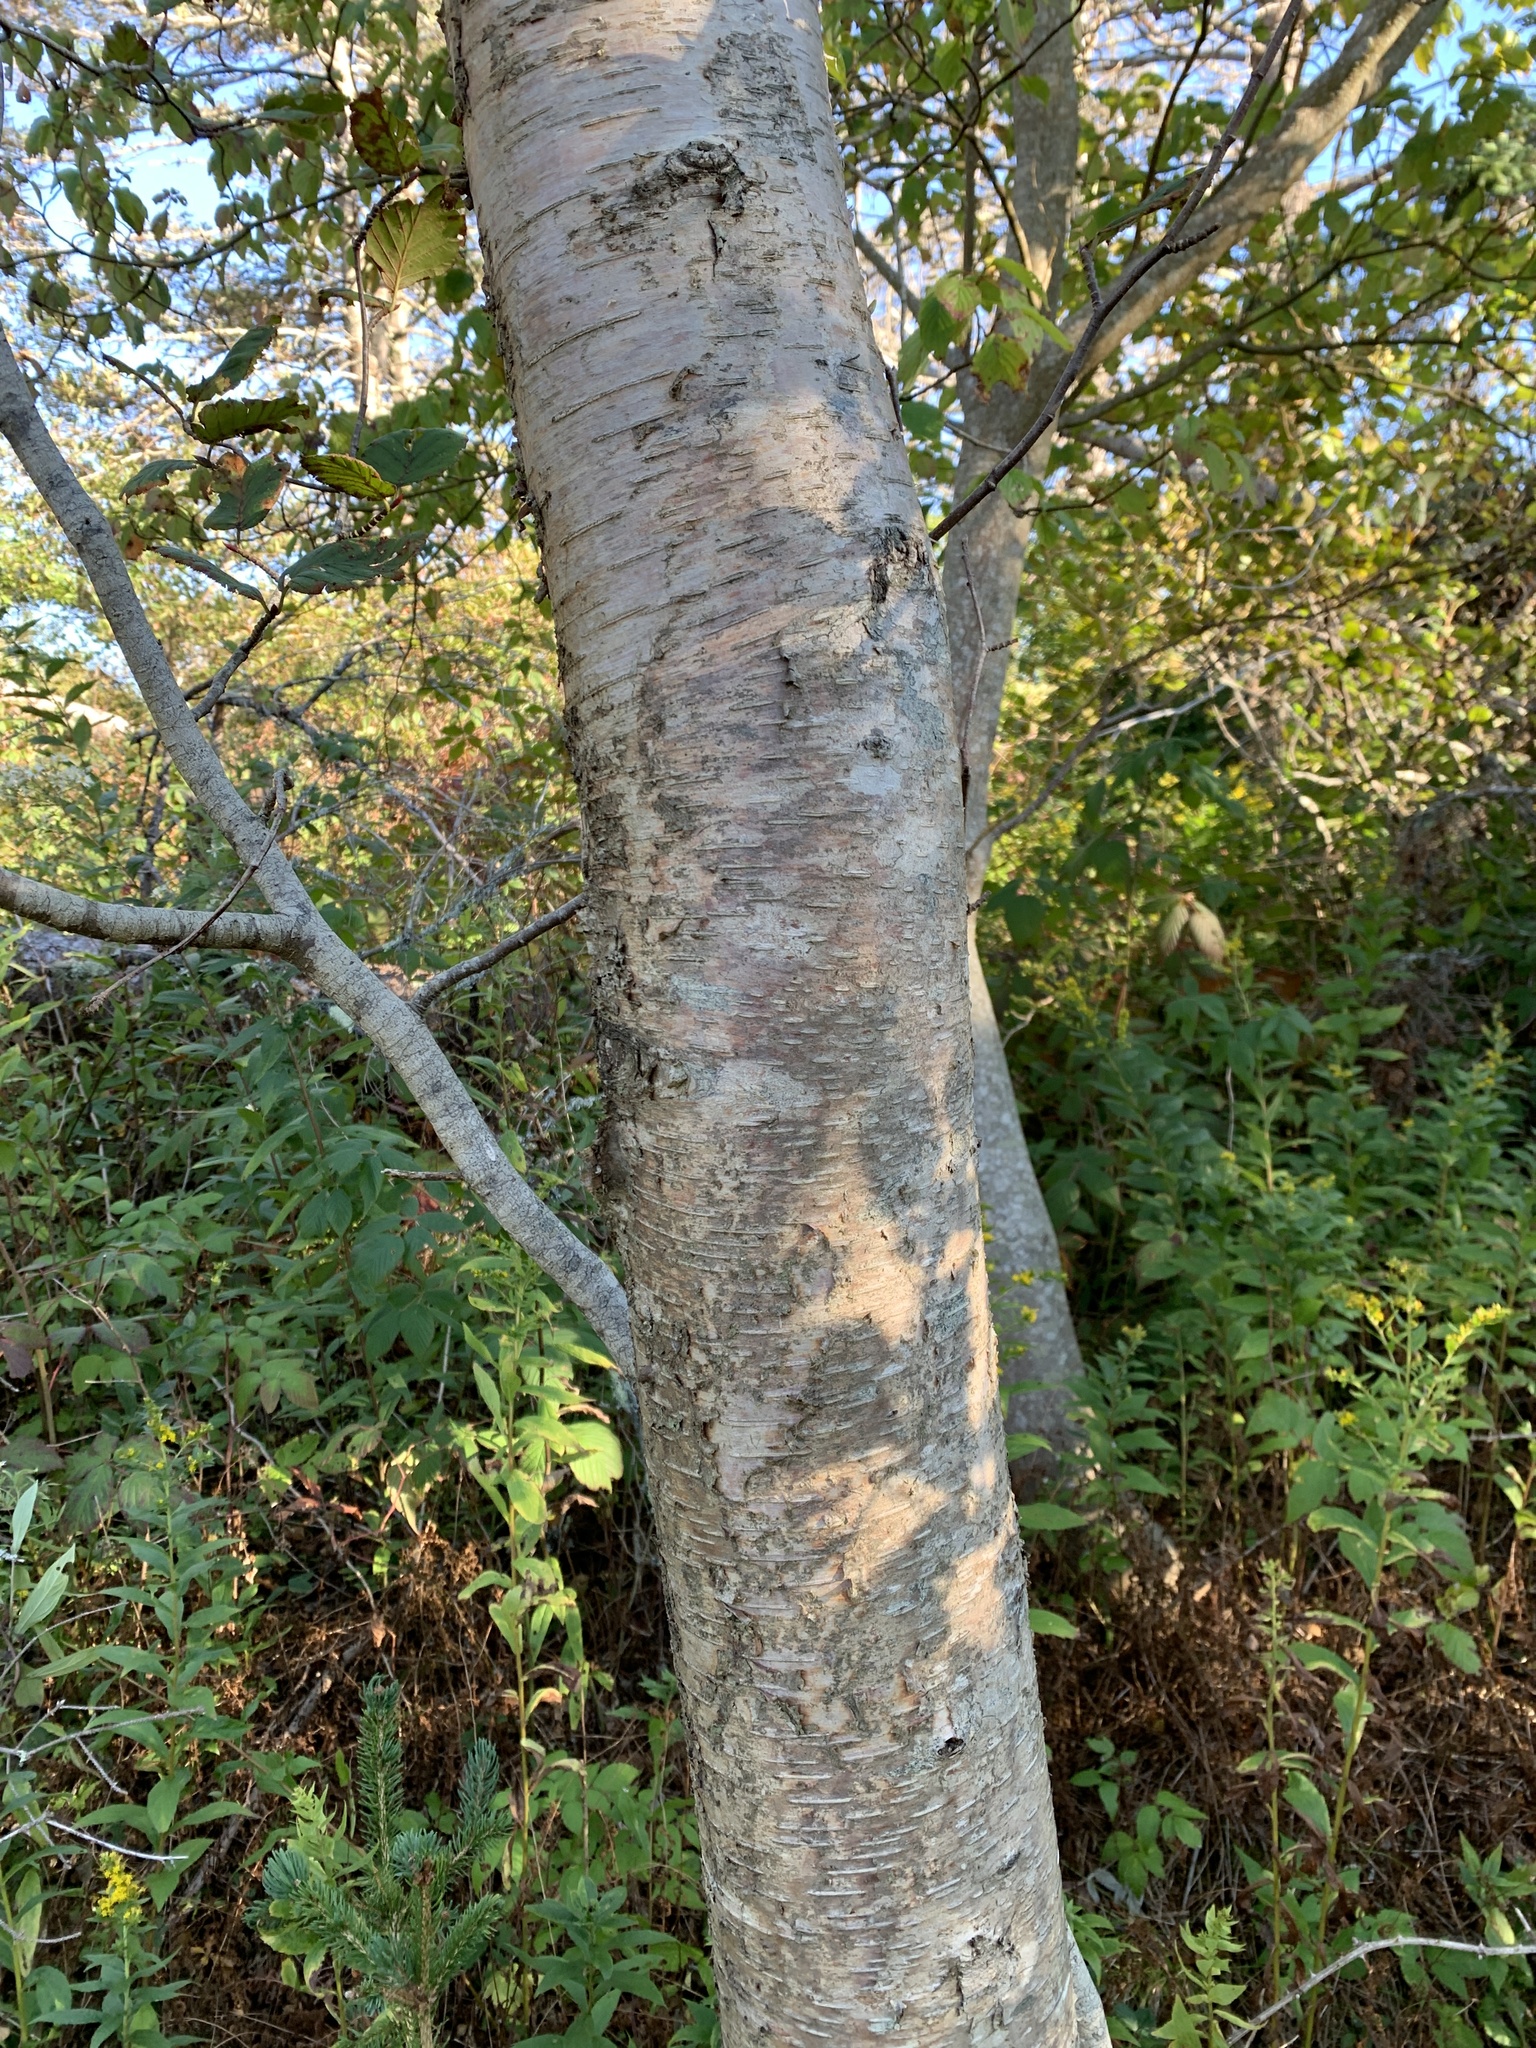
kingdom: Plantae
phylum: Tracheophyta
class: Magnoliopsida
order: Fagales
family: Betulaceae
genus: Betula
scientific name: Betula papyrifera
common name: Paper birch
